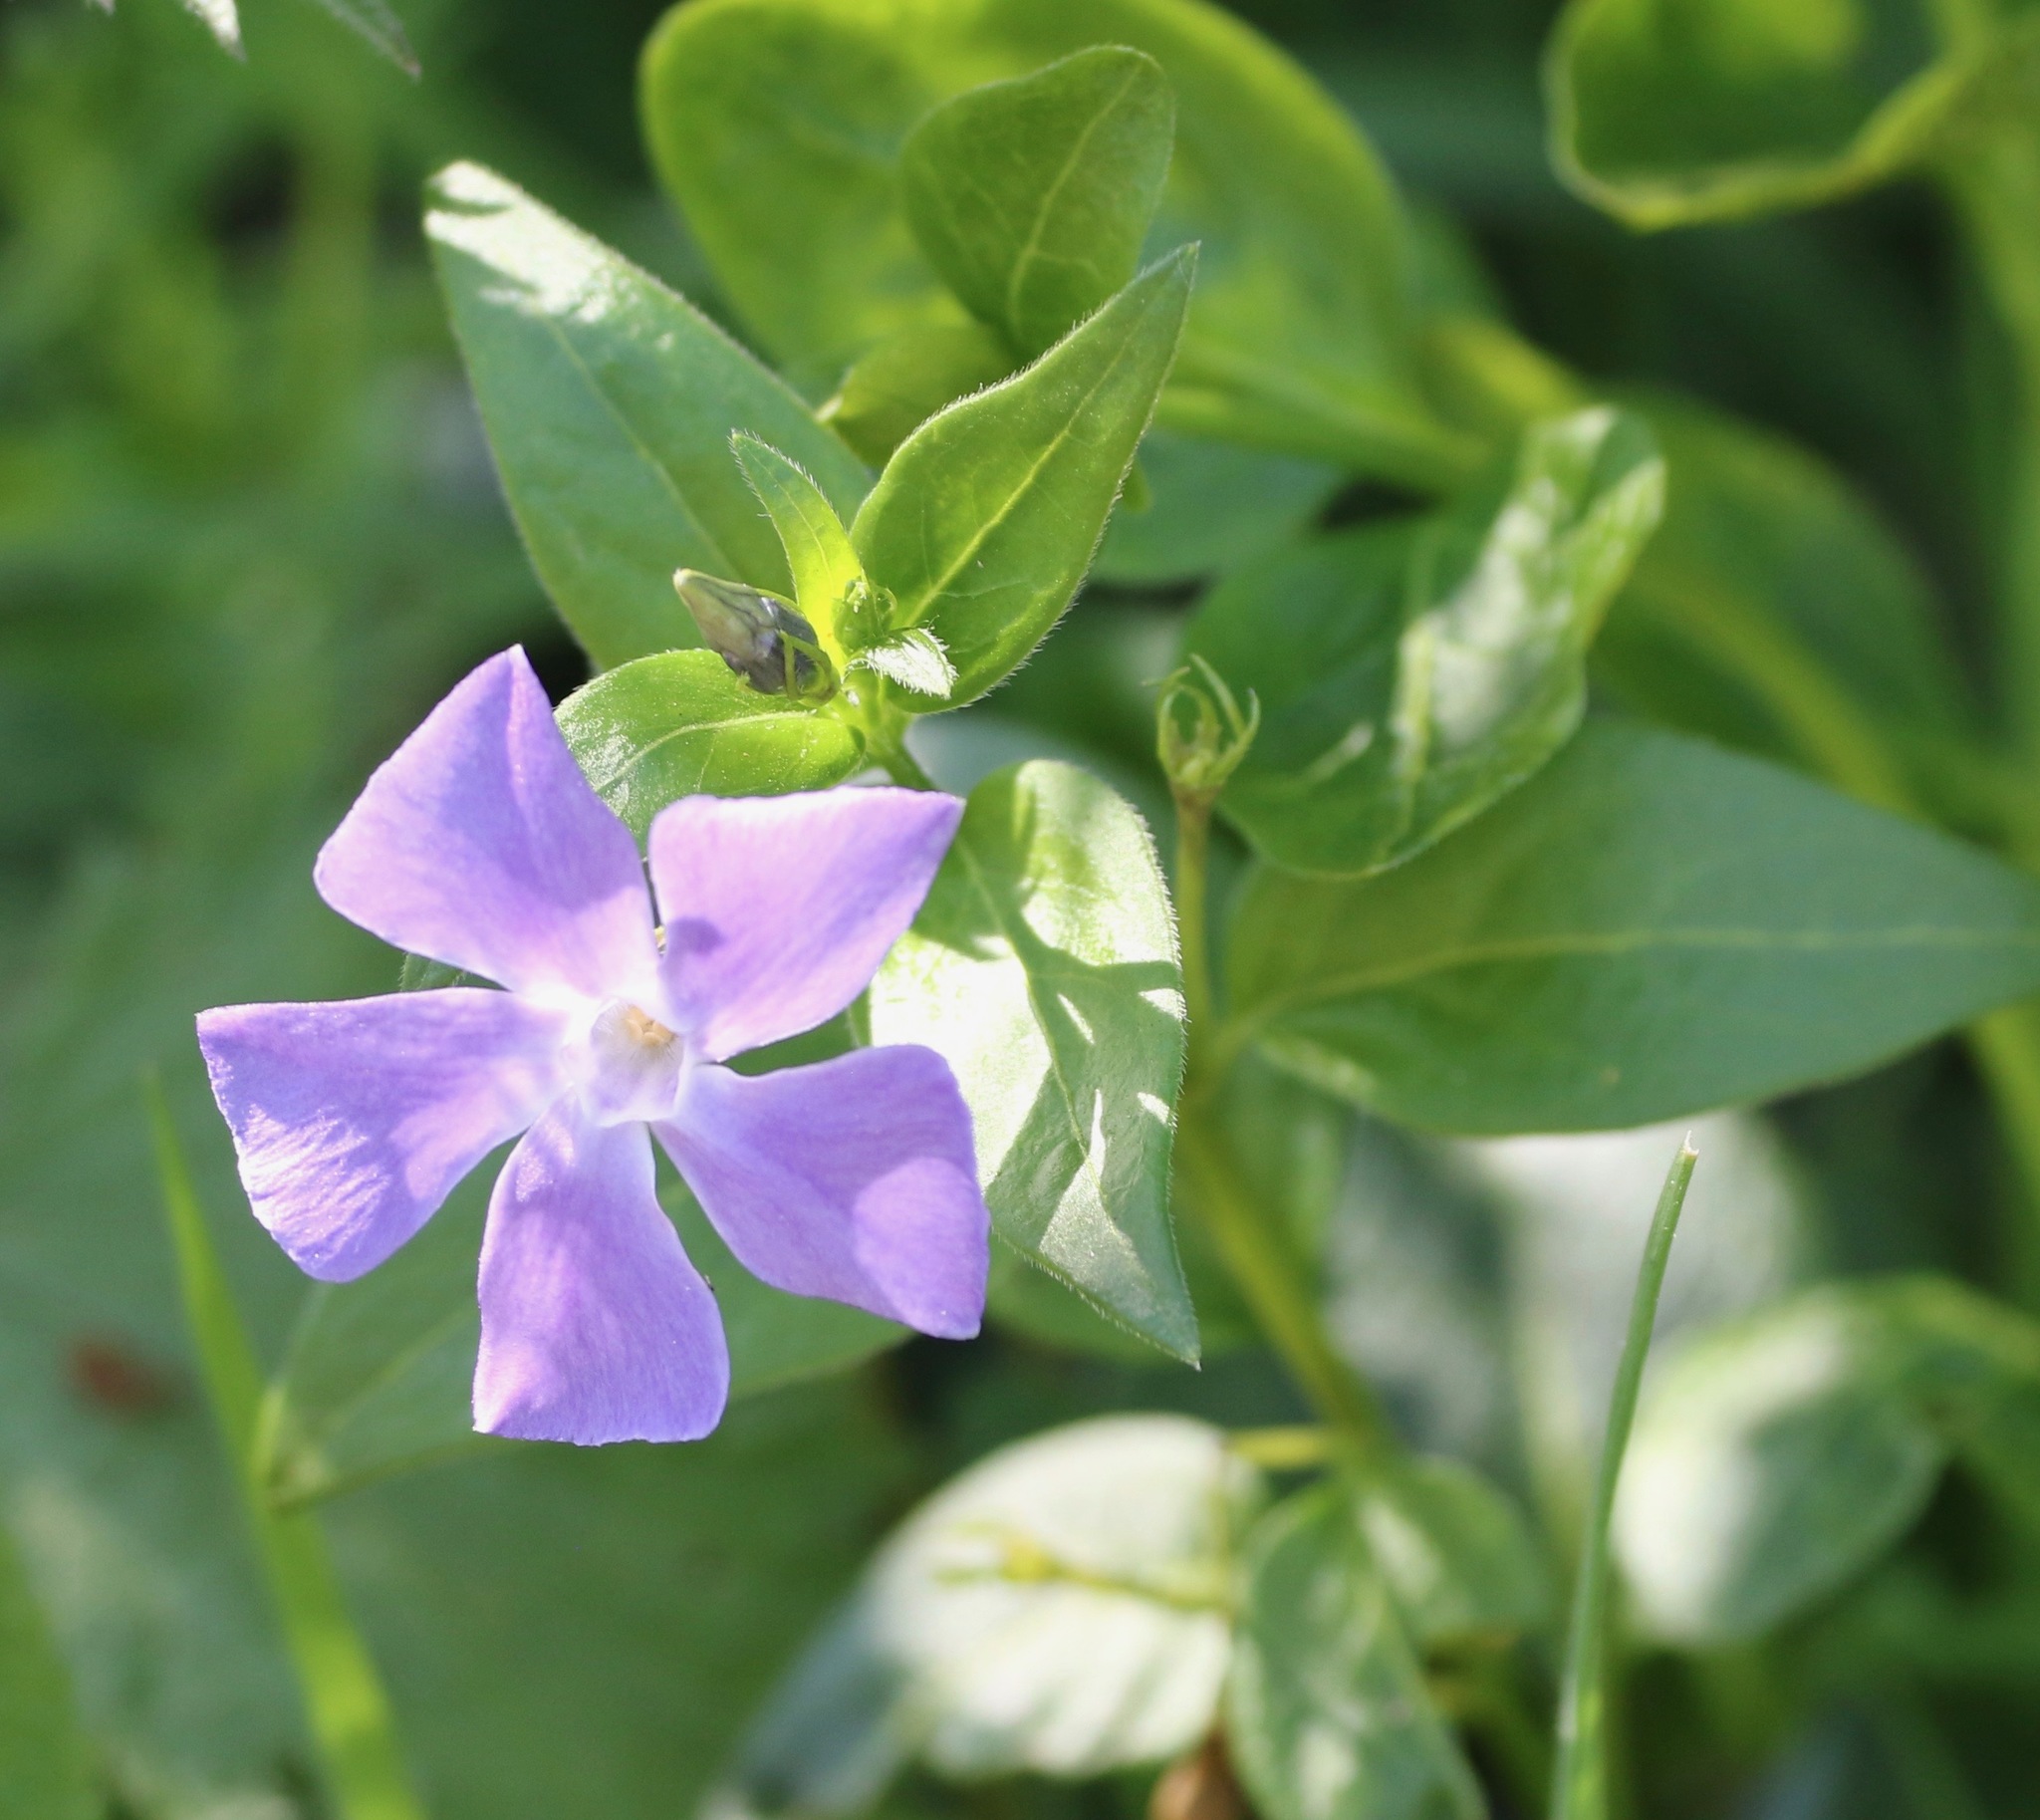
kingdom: Plantae
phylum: Tracheophyta
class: Magnoliopsida
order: Gentianales
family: Apocynaceae
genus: Vinca
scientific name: Vinca major
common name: Greater periwinkle
